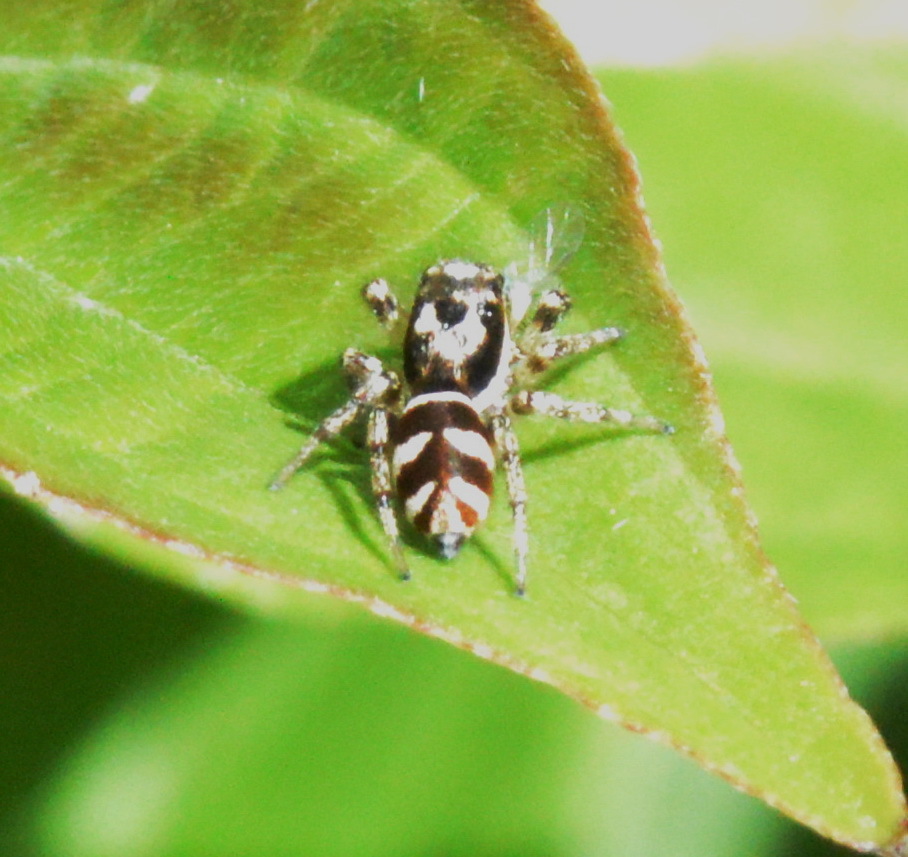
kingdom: Animalia
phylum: Arthropoda
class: Arachnida
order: Araneae
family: Salticidae
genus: Salticus
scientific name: Salticus scenicus
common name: Zebra jumper
